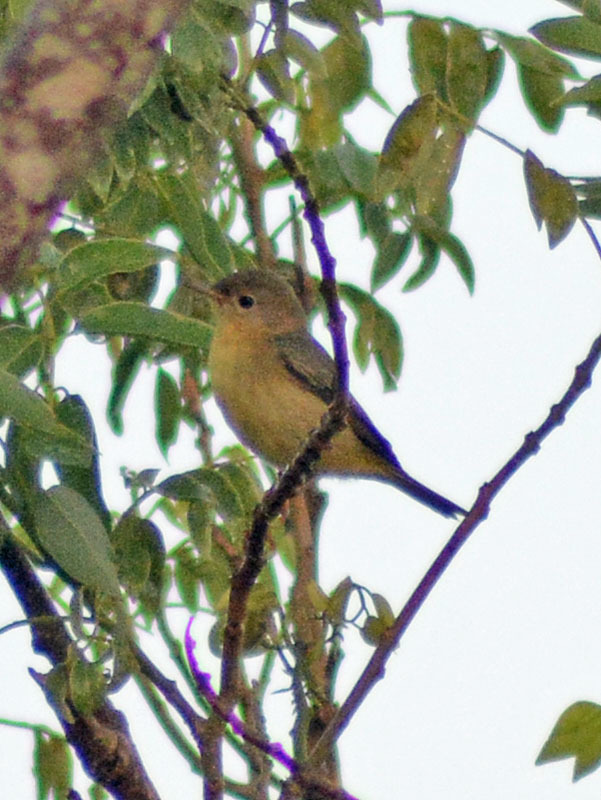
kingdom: Animalia
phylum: Chordata
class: Aves
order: Passeriformes
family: Parulidae
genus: Setophaga
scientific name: Setophaga petechia
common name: Yellow warbler
